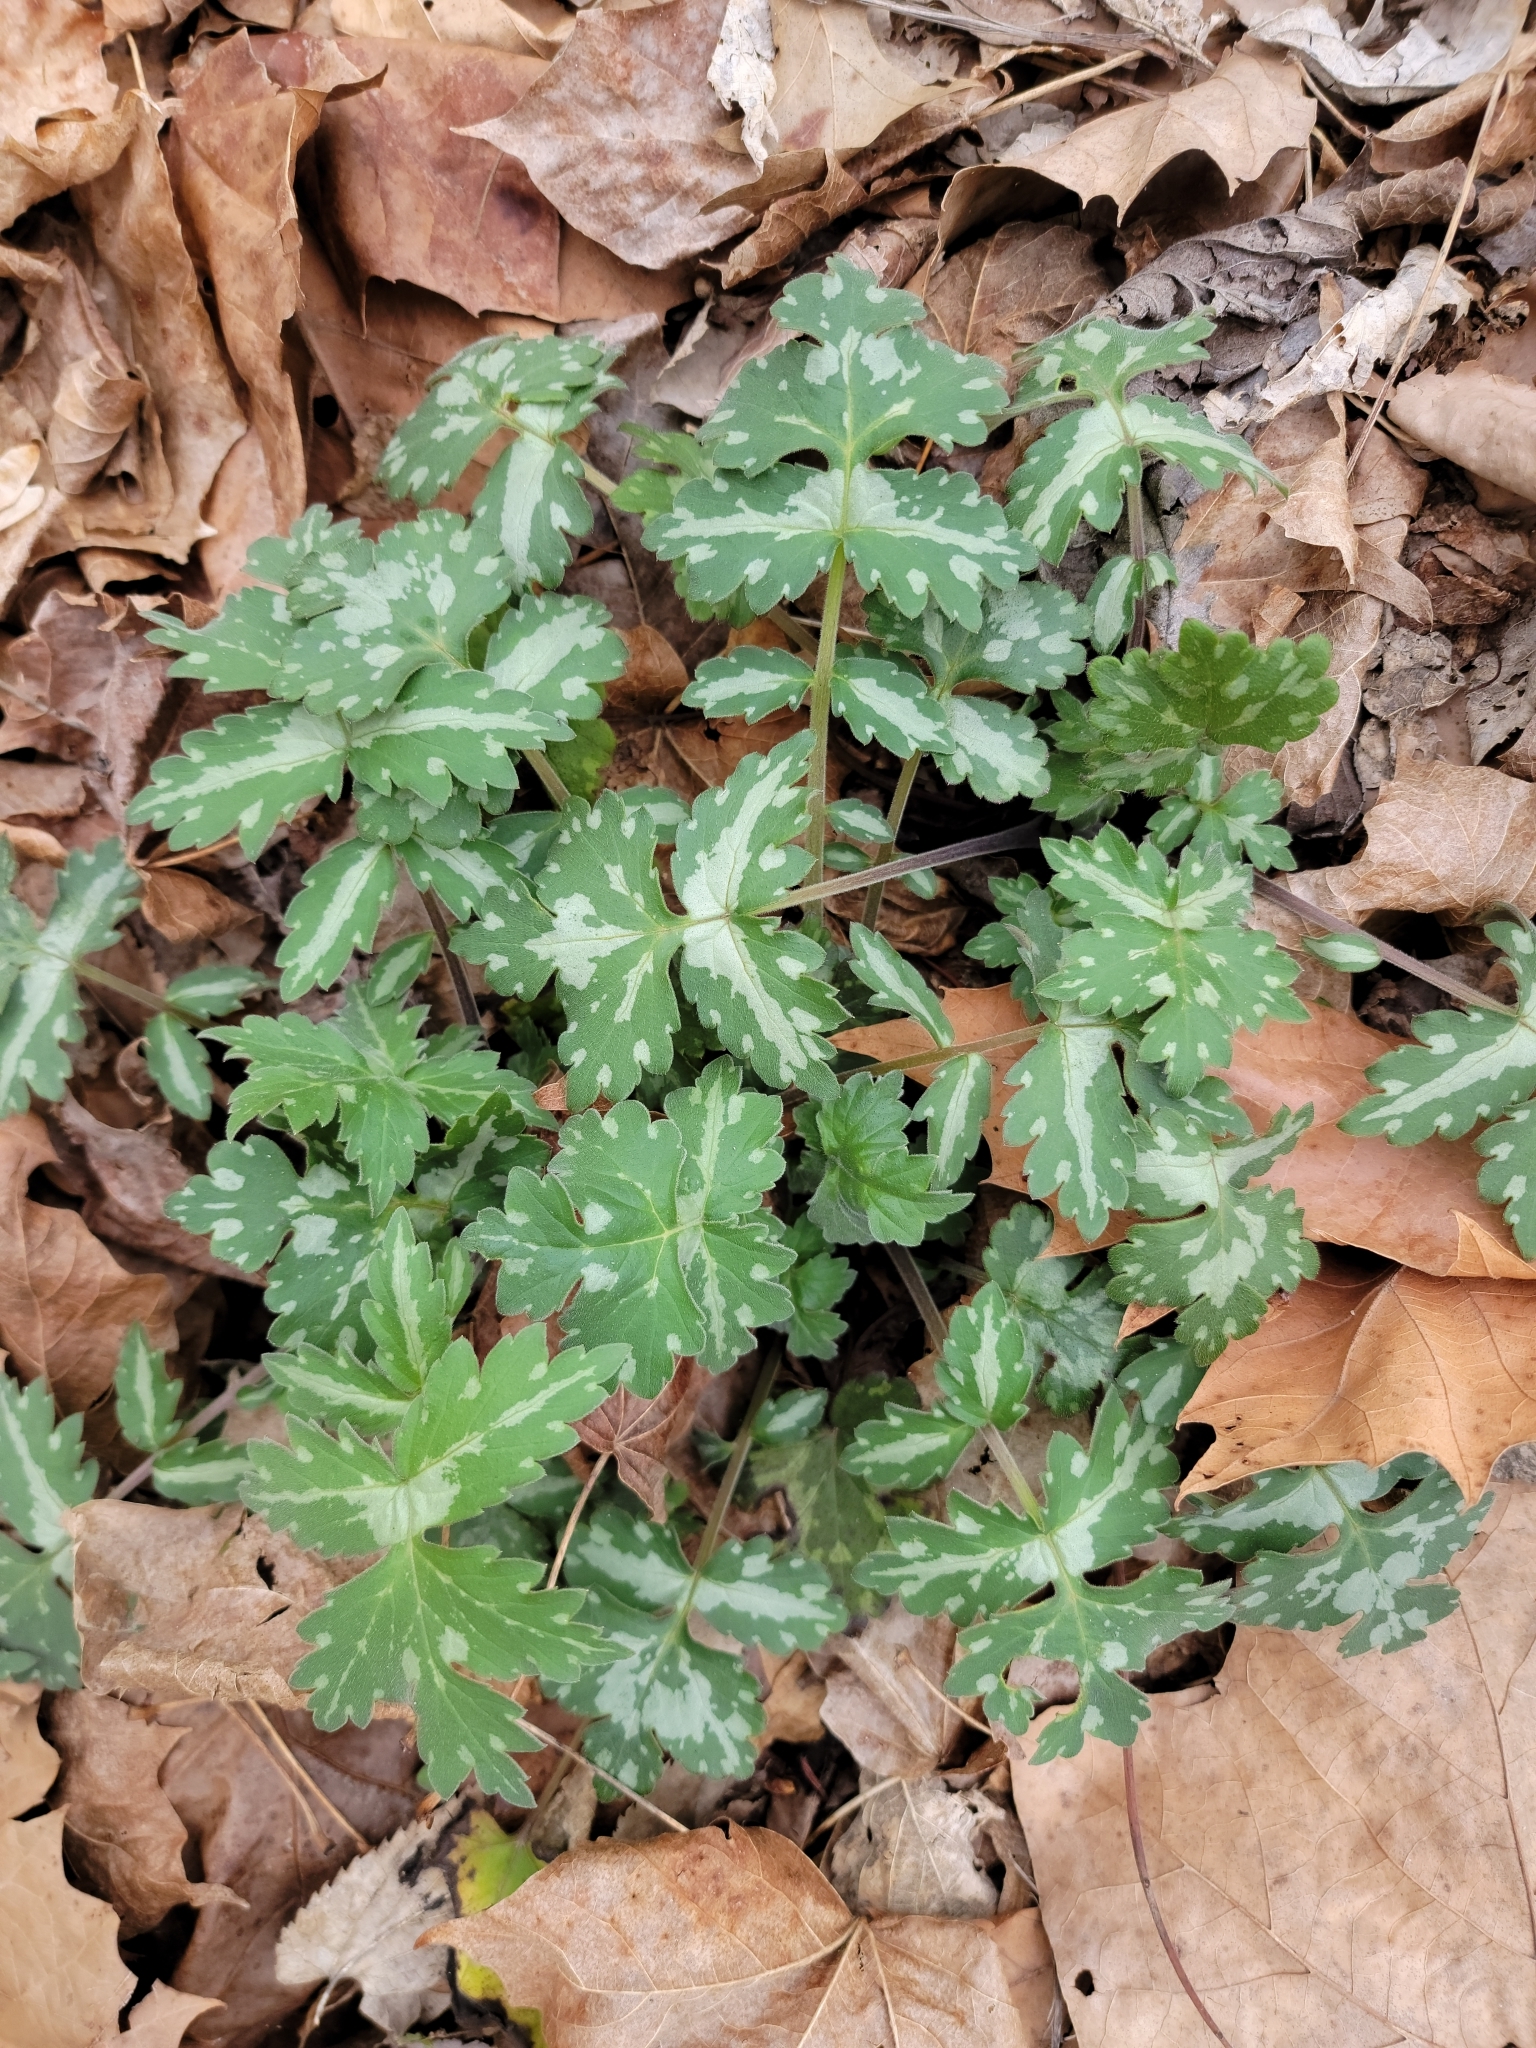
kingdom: Plantae
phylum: Tracheophyta
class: Magnoliopsida
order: Boraginales
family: Hydrophyllaceae
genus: Hydrophyllum
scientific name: Hydrophyllum appendiculatum
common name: Appendaged waterleaf
